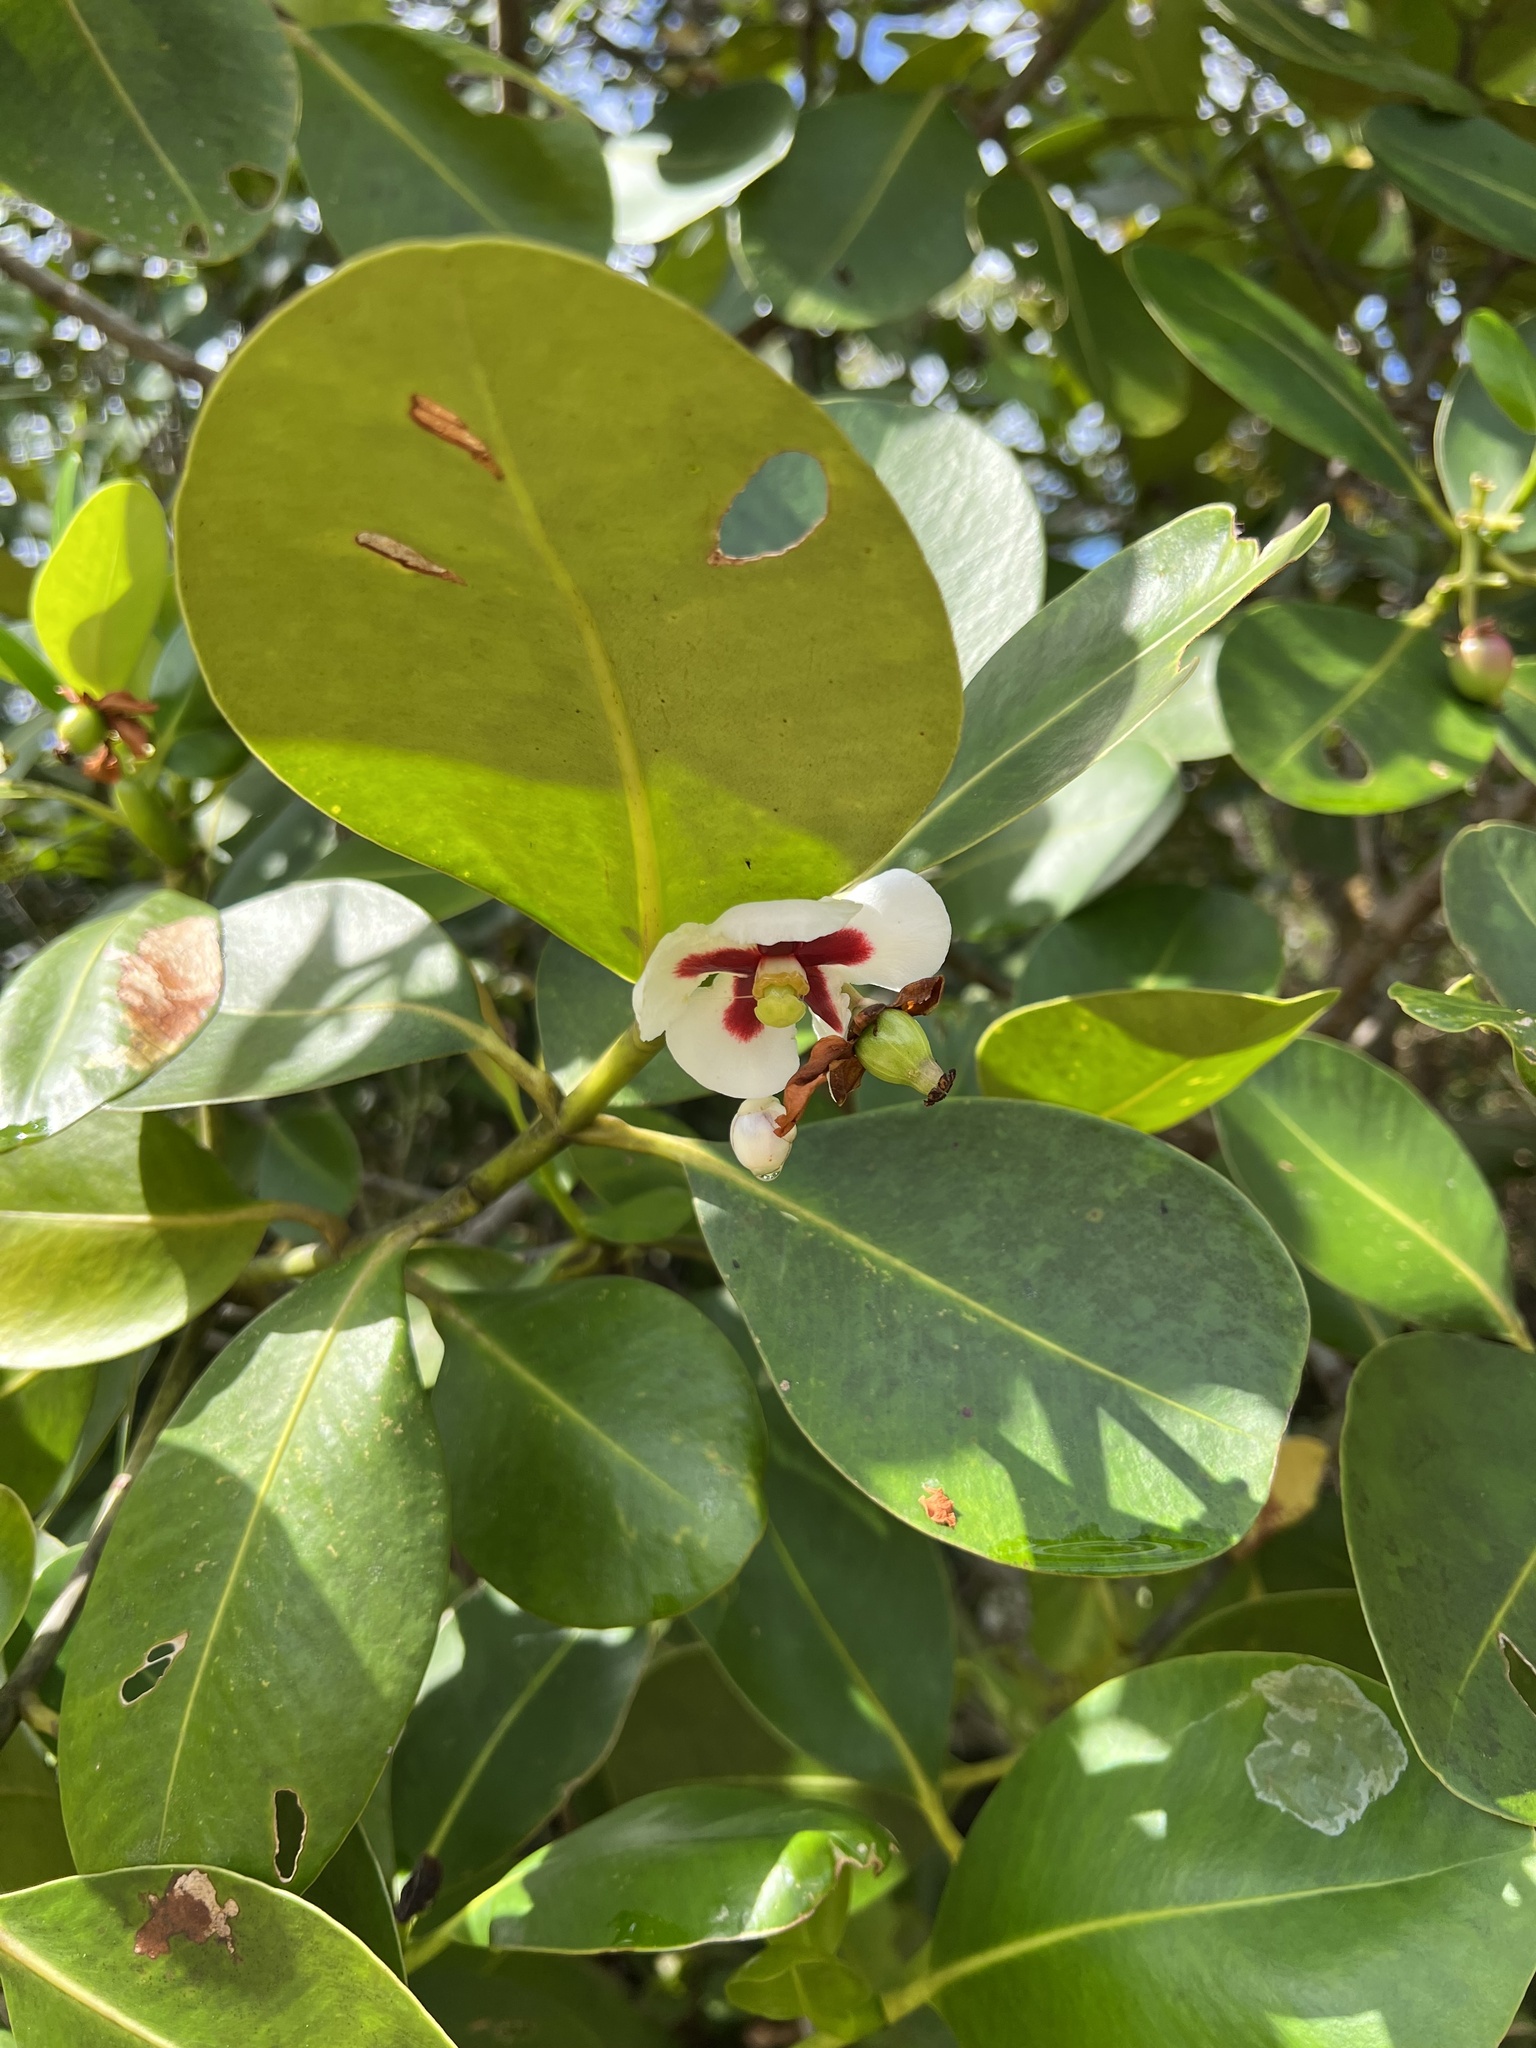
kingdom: Plantae
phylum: Tracheophyta
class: Magnoliopsida
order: Malpighiales
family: Clusiaceae
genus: Clusia
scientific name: Clusia columnaris
